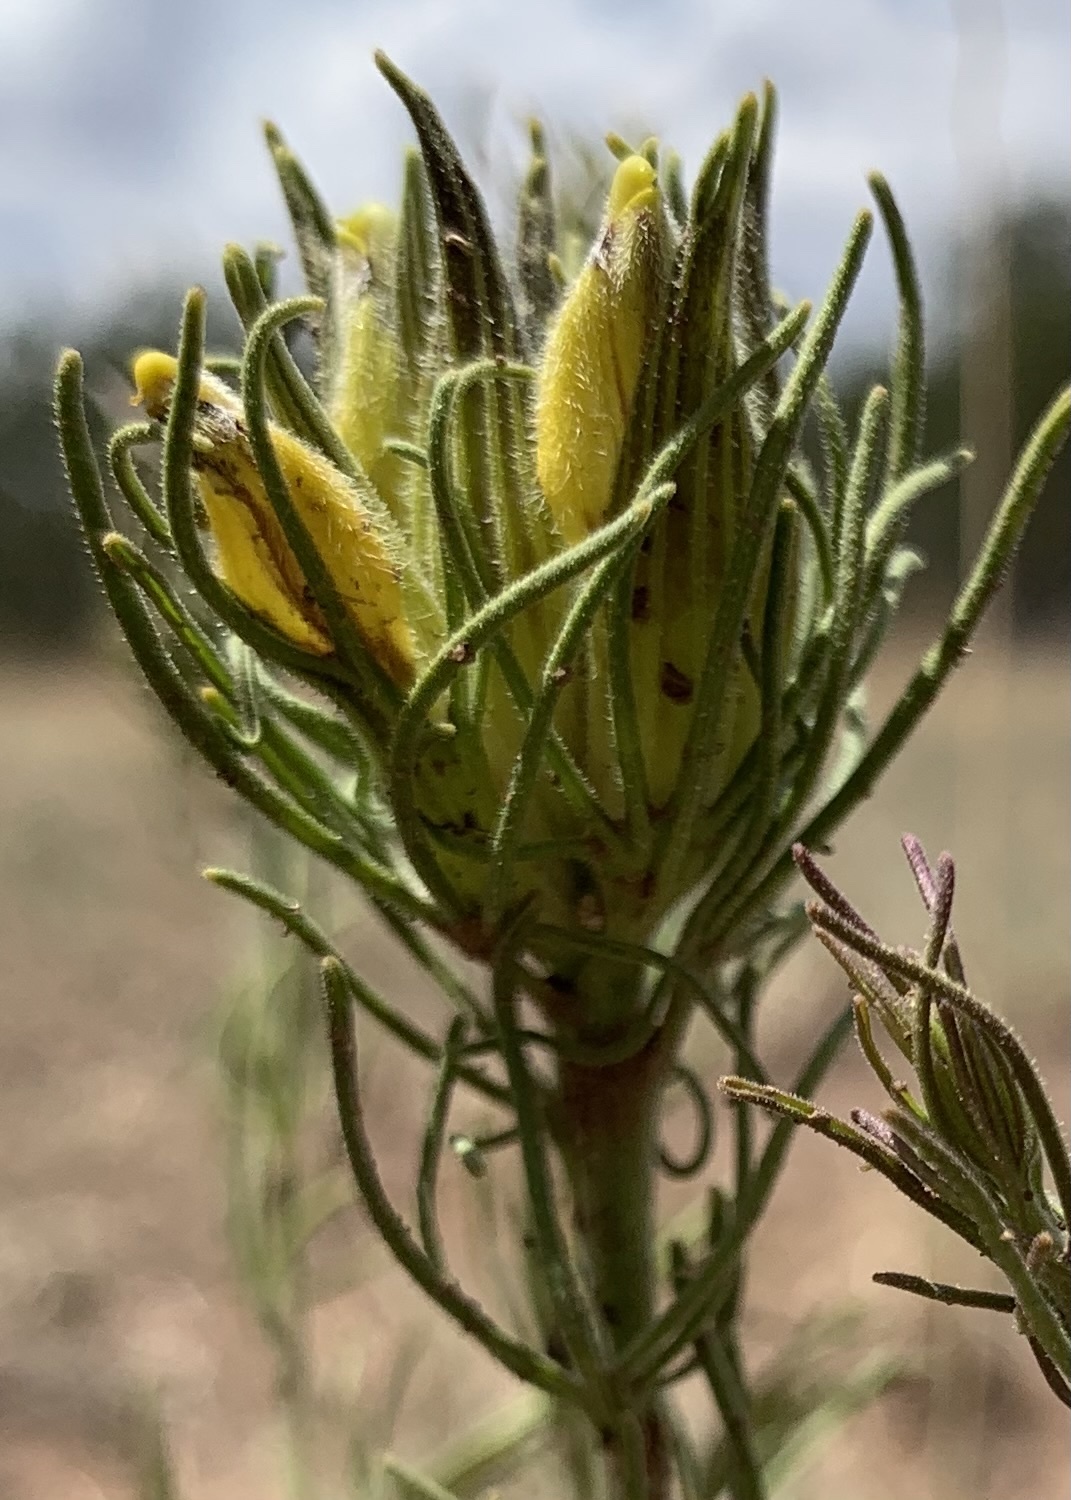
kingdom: Plantae
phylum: Tracheophyta
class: Magnoliopsida
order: Lamiales
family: Orobanchaceae
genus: Cordylanthus
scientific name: Cordylanthus wrightii
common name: Wright's birdsbeak
